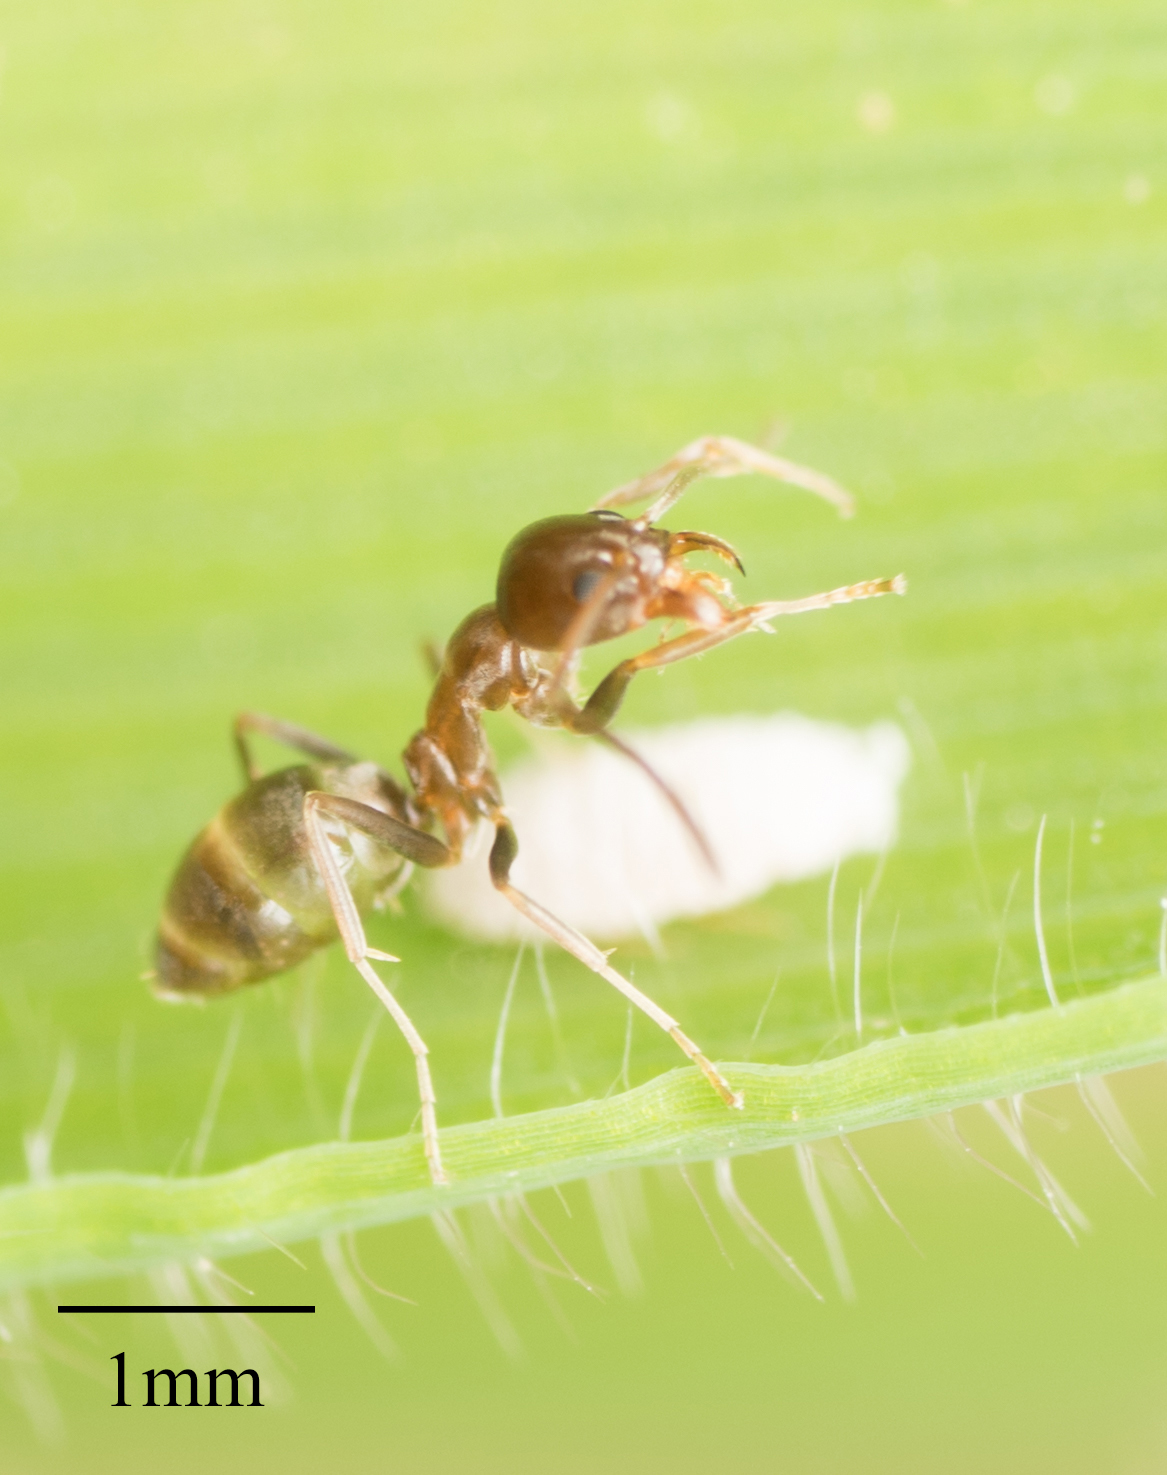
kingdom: Animalia
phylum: Arthropoda
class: Insecta
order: Hymenoptera
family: Formicidae
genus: Linepithema
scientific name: Linepithema humile
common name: Argentine ant
